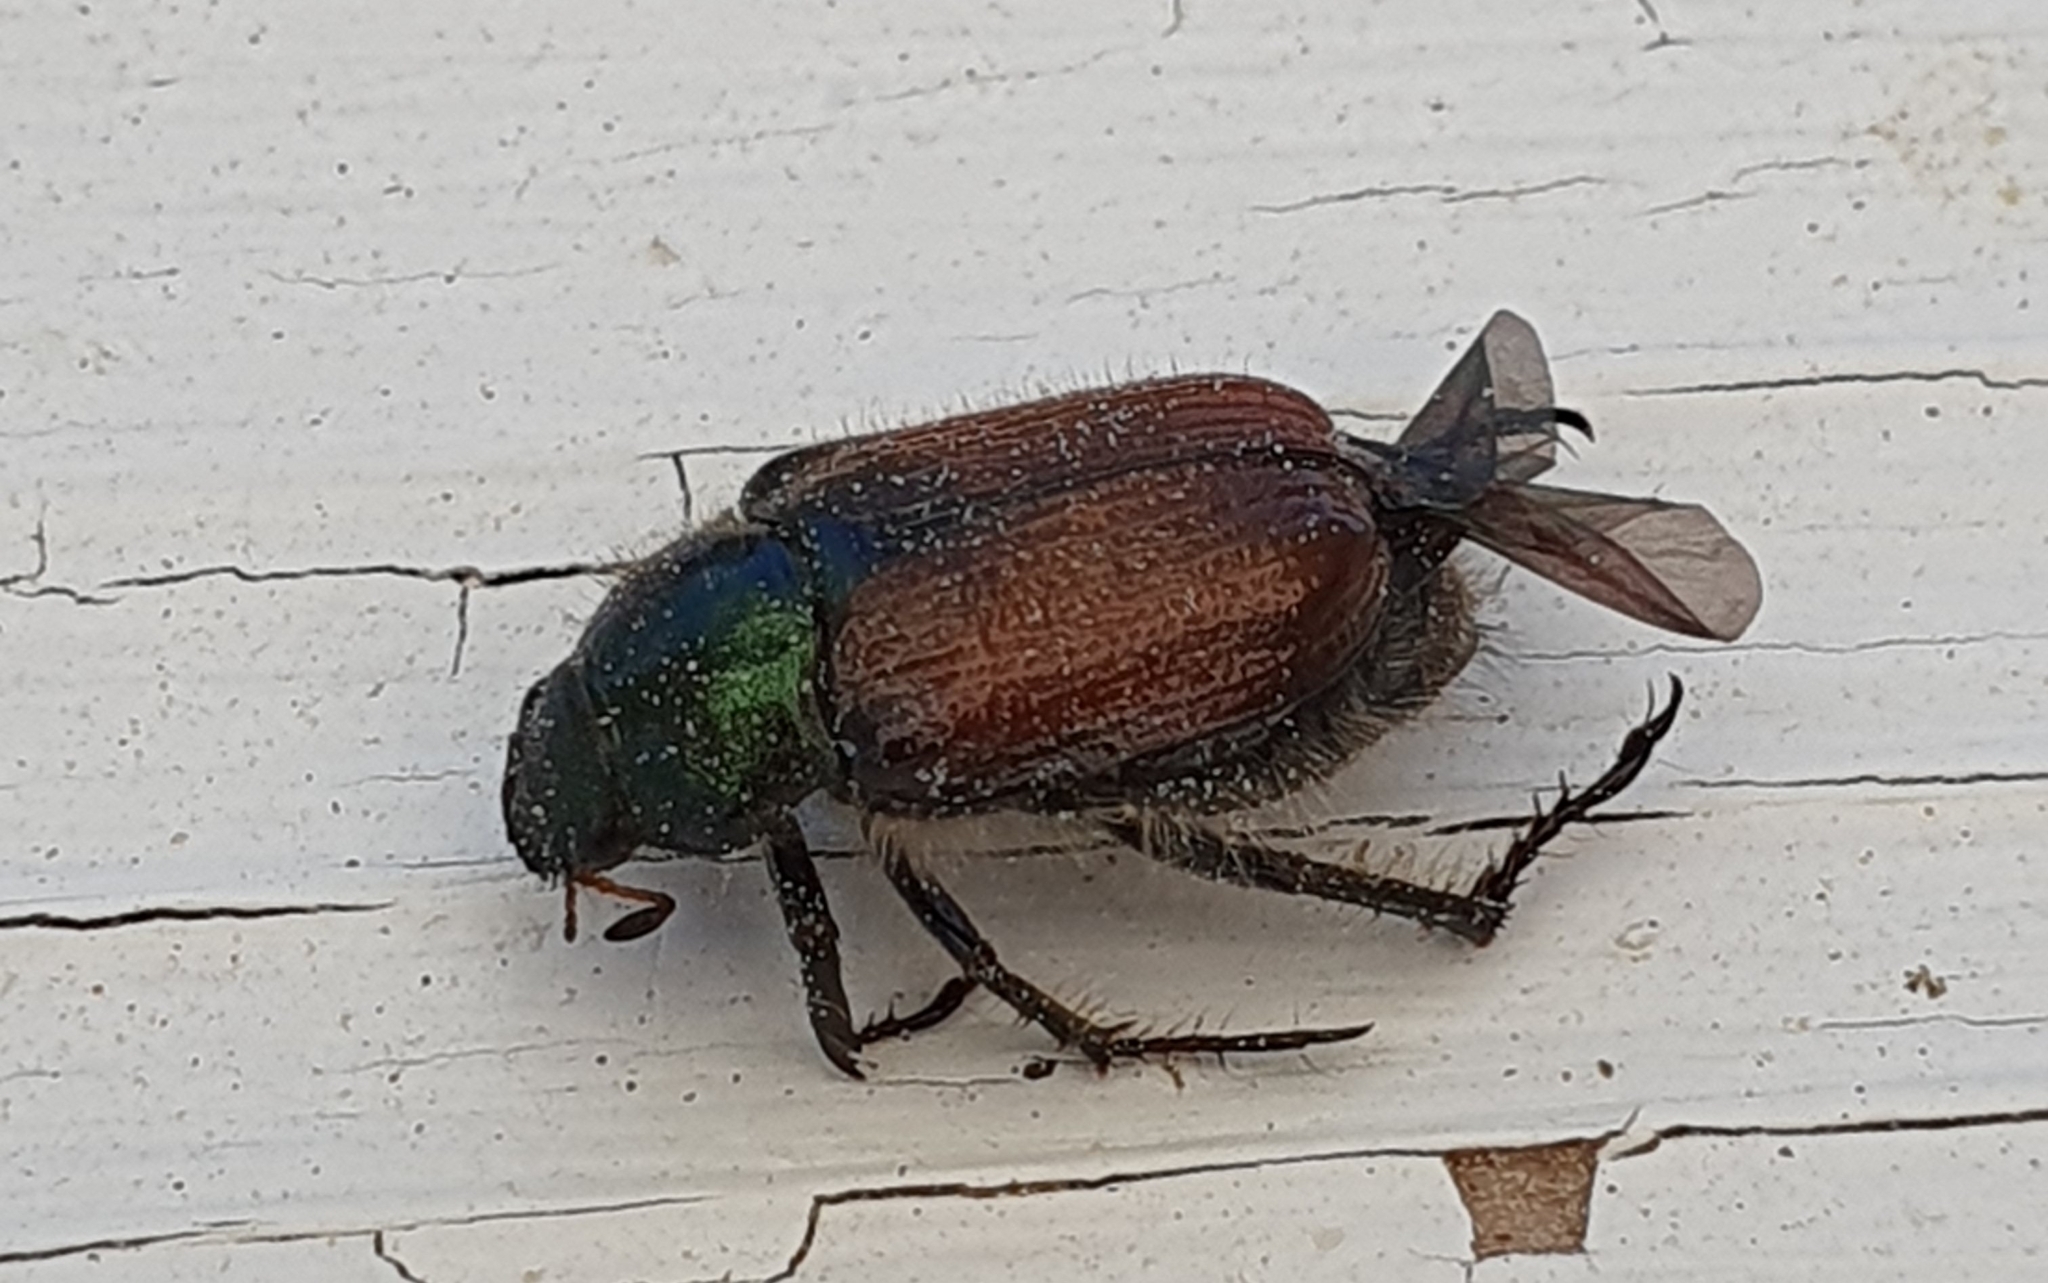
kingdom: Animalia
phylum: Arthropoda
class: Insecta
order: Coleoptera
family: Scarabaeidae
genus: Phyllopertha
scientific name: Phyllopertha horticola
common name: Garden chafer
